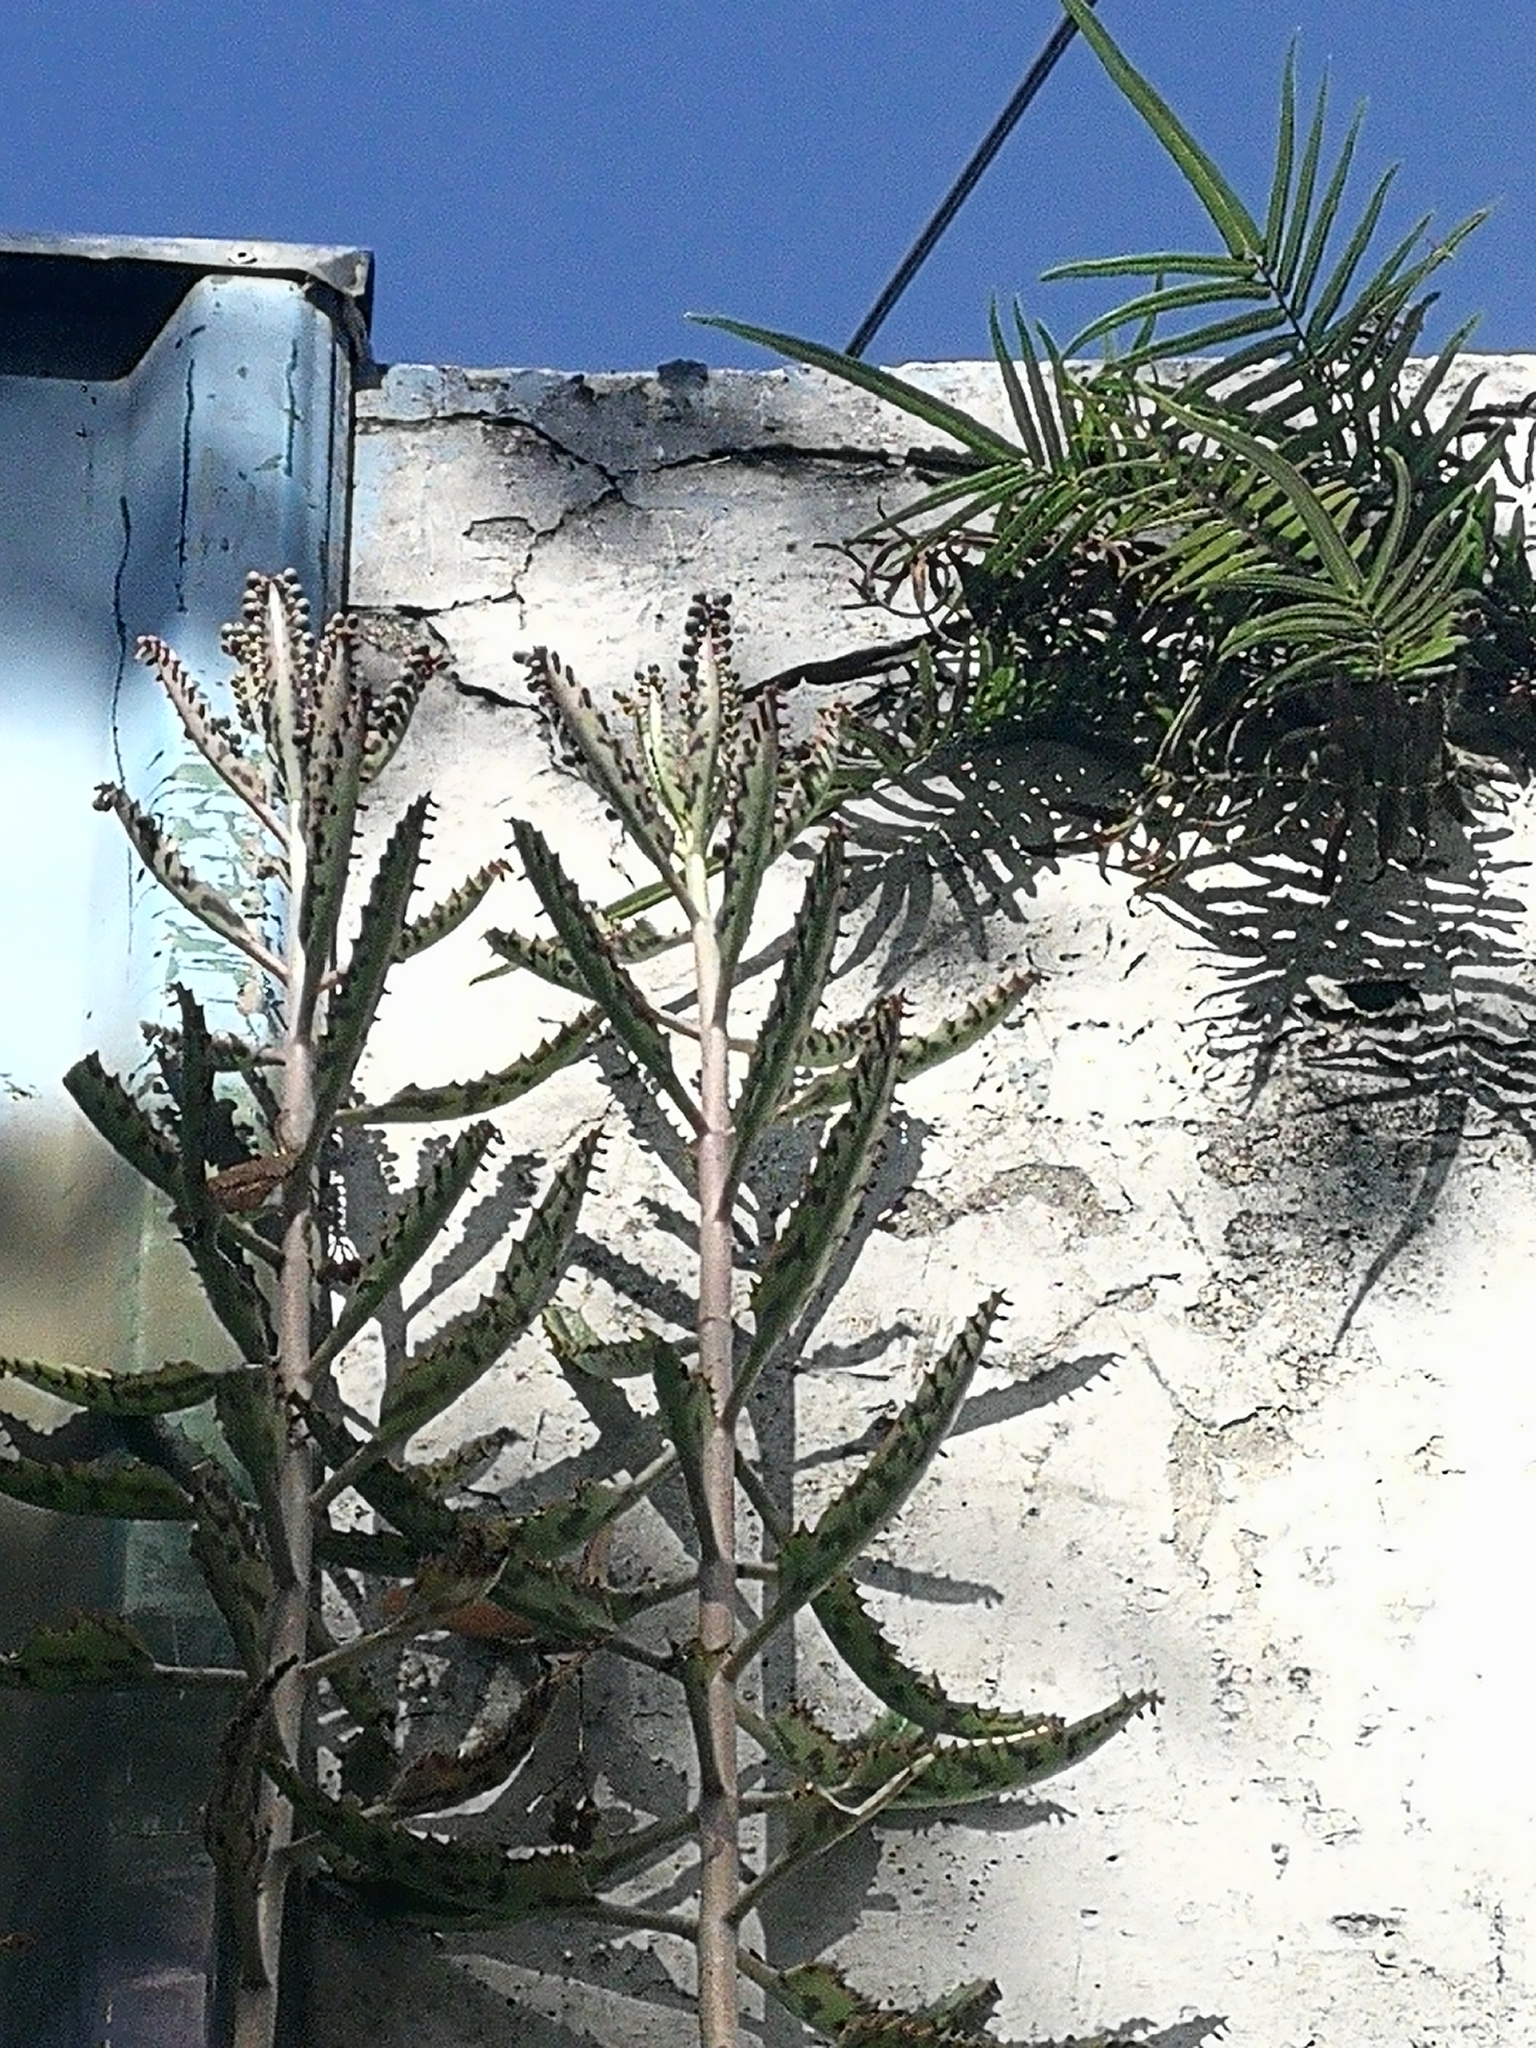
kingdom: Plantae
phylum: Tracheophyta
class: Magnoliopsida
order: Saxifragales
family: Crassulaceae
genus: Kalanchoe
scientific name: Kalanchoe houghtonii
